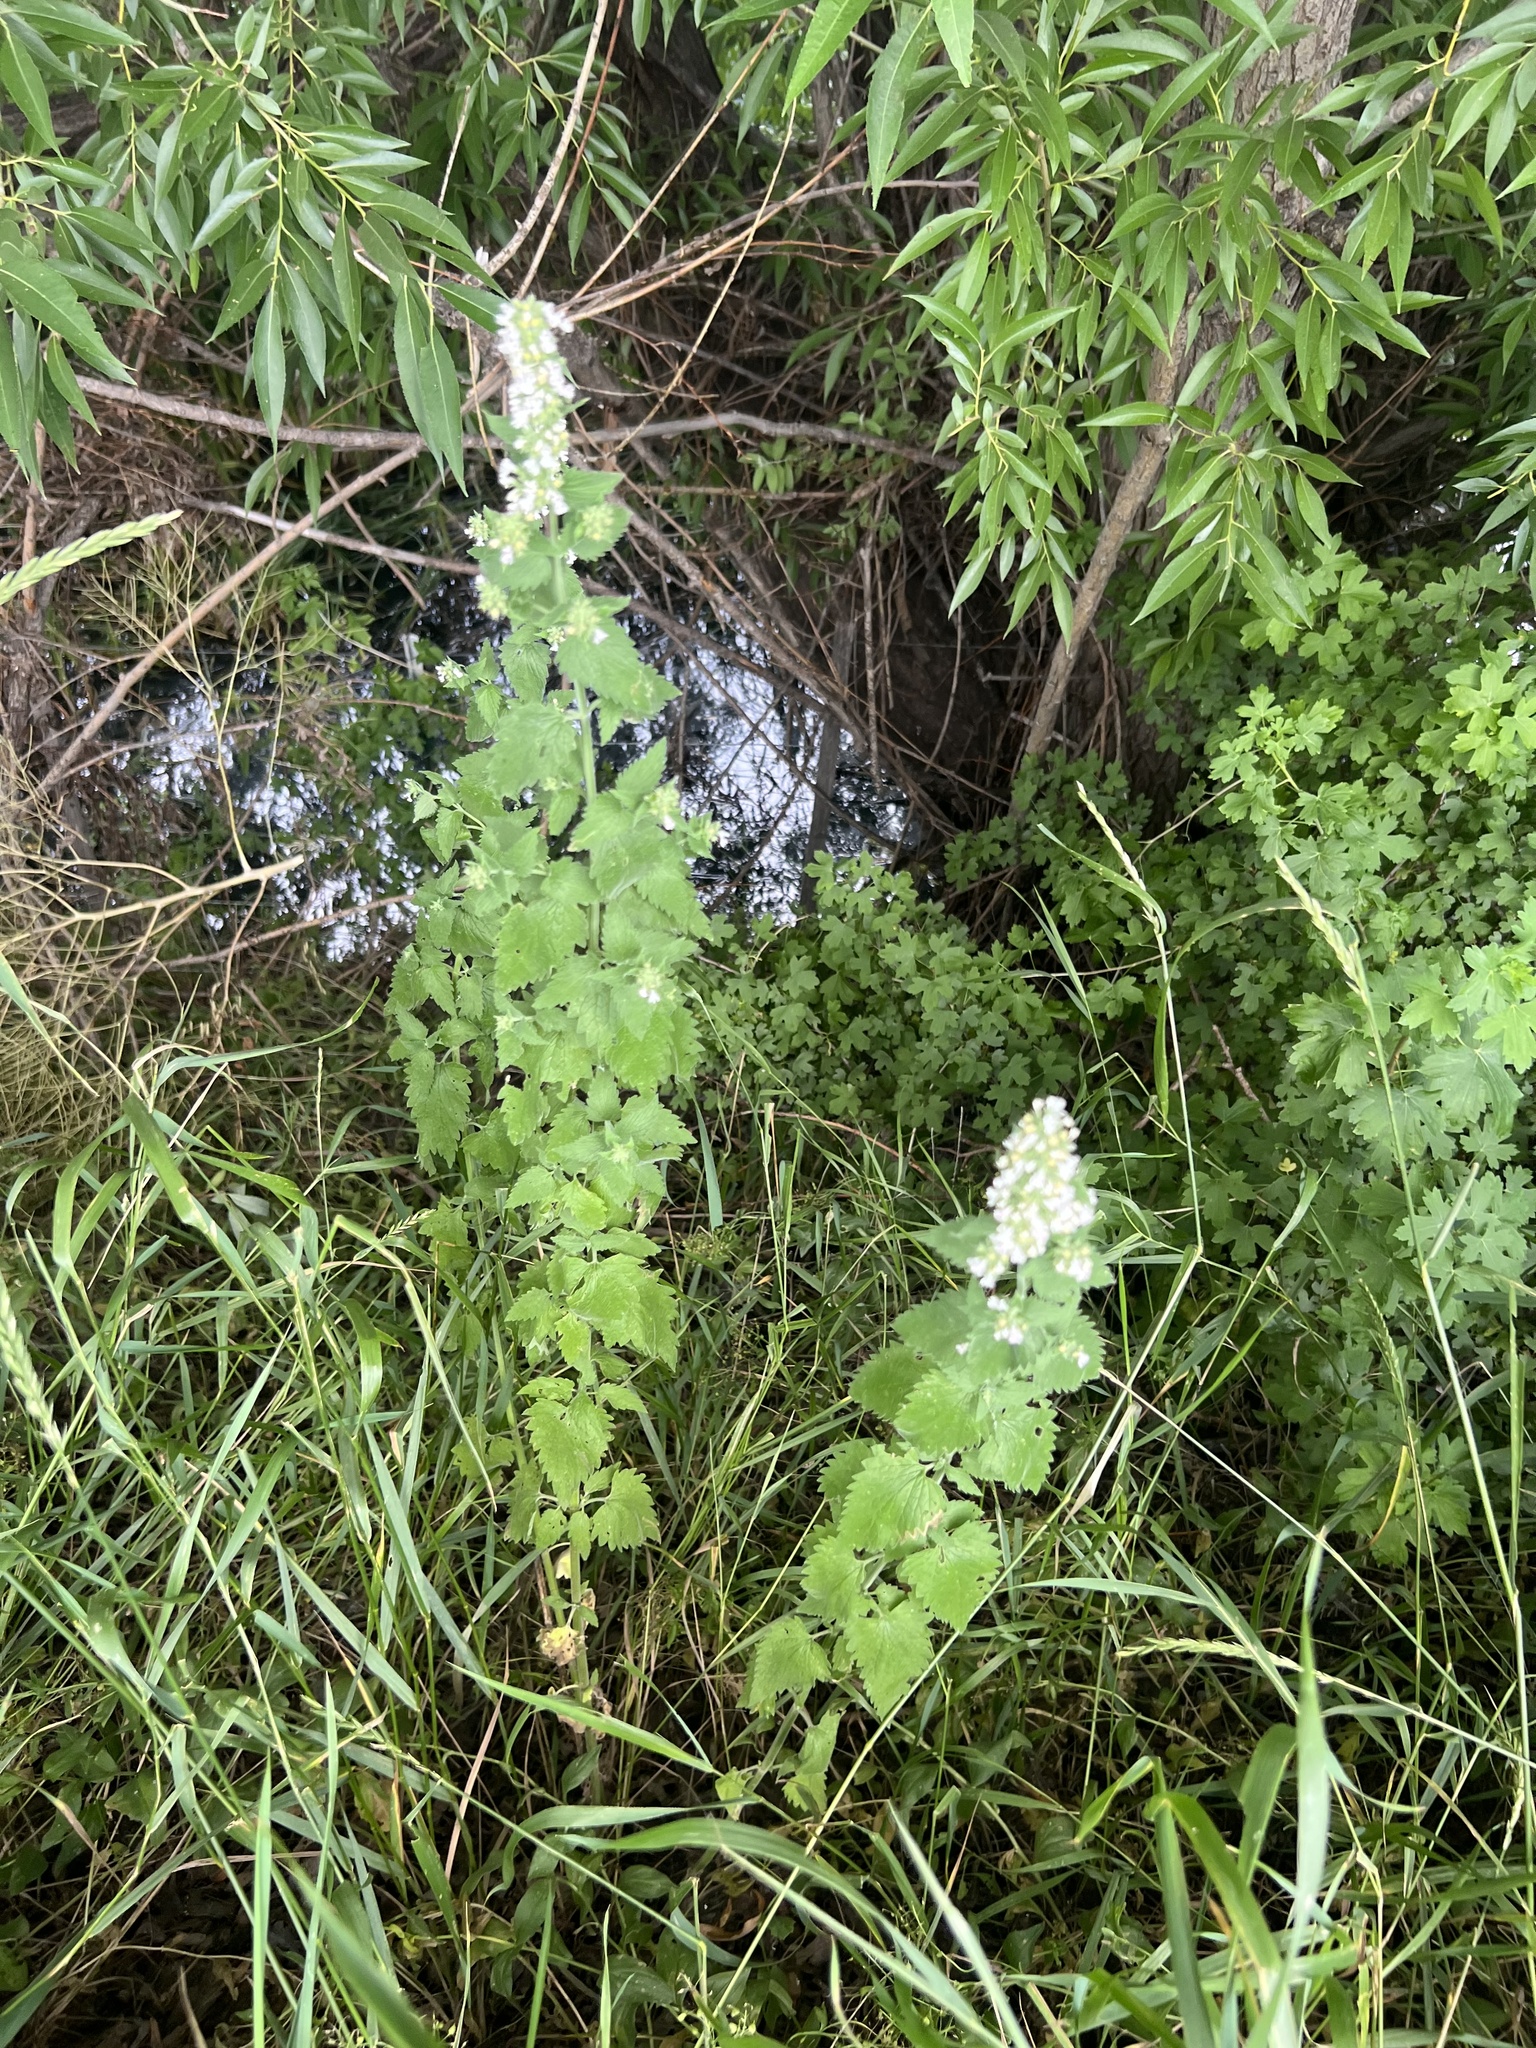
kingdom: Plantae
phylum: Tracheophyta
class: Magnoliopsida
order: Lamiales
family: Lamiaceae
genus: Nepeta
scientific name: Nepeta cataria
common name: Catnip
